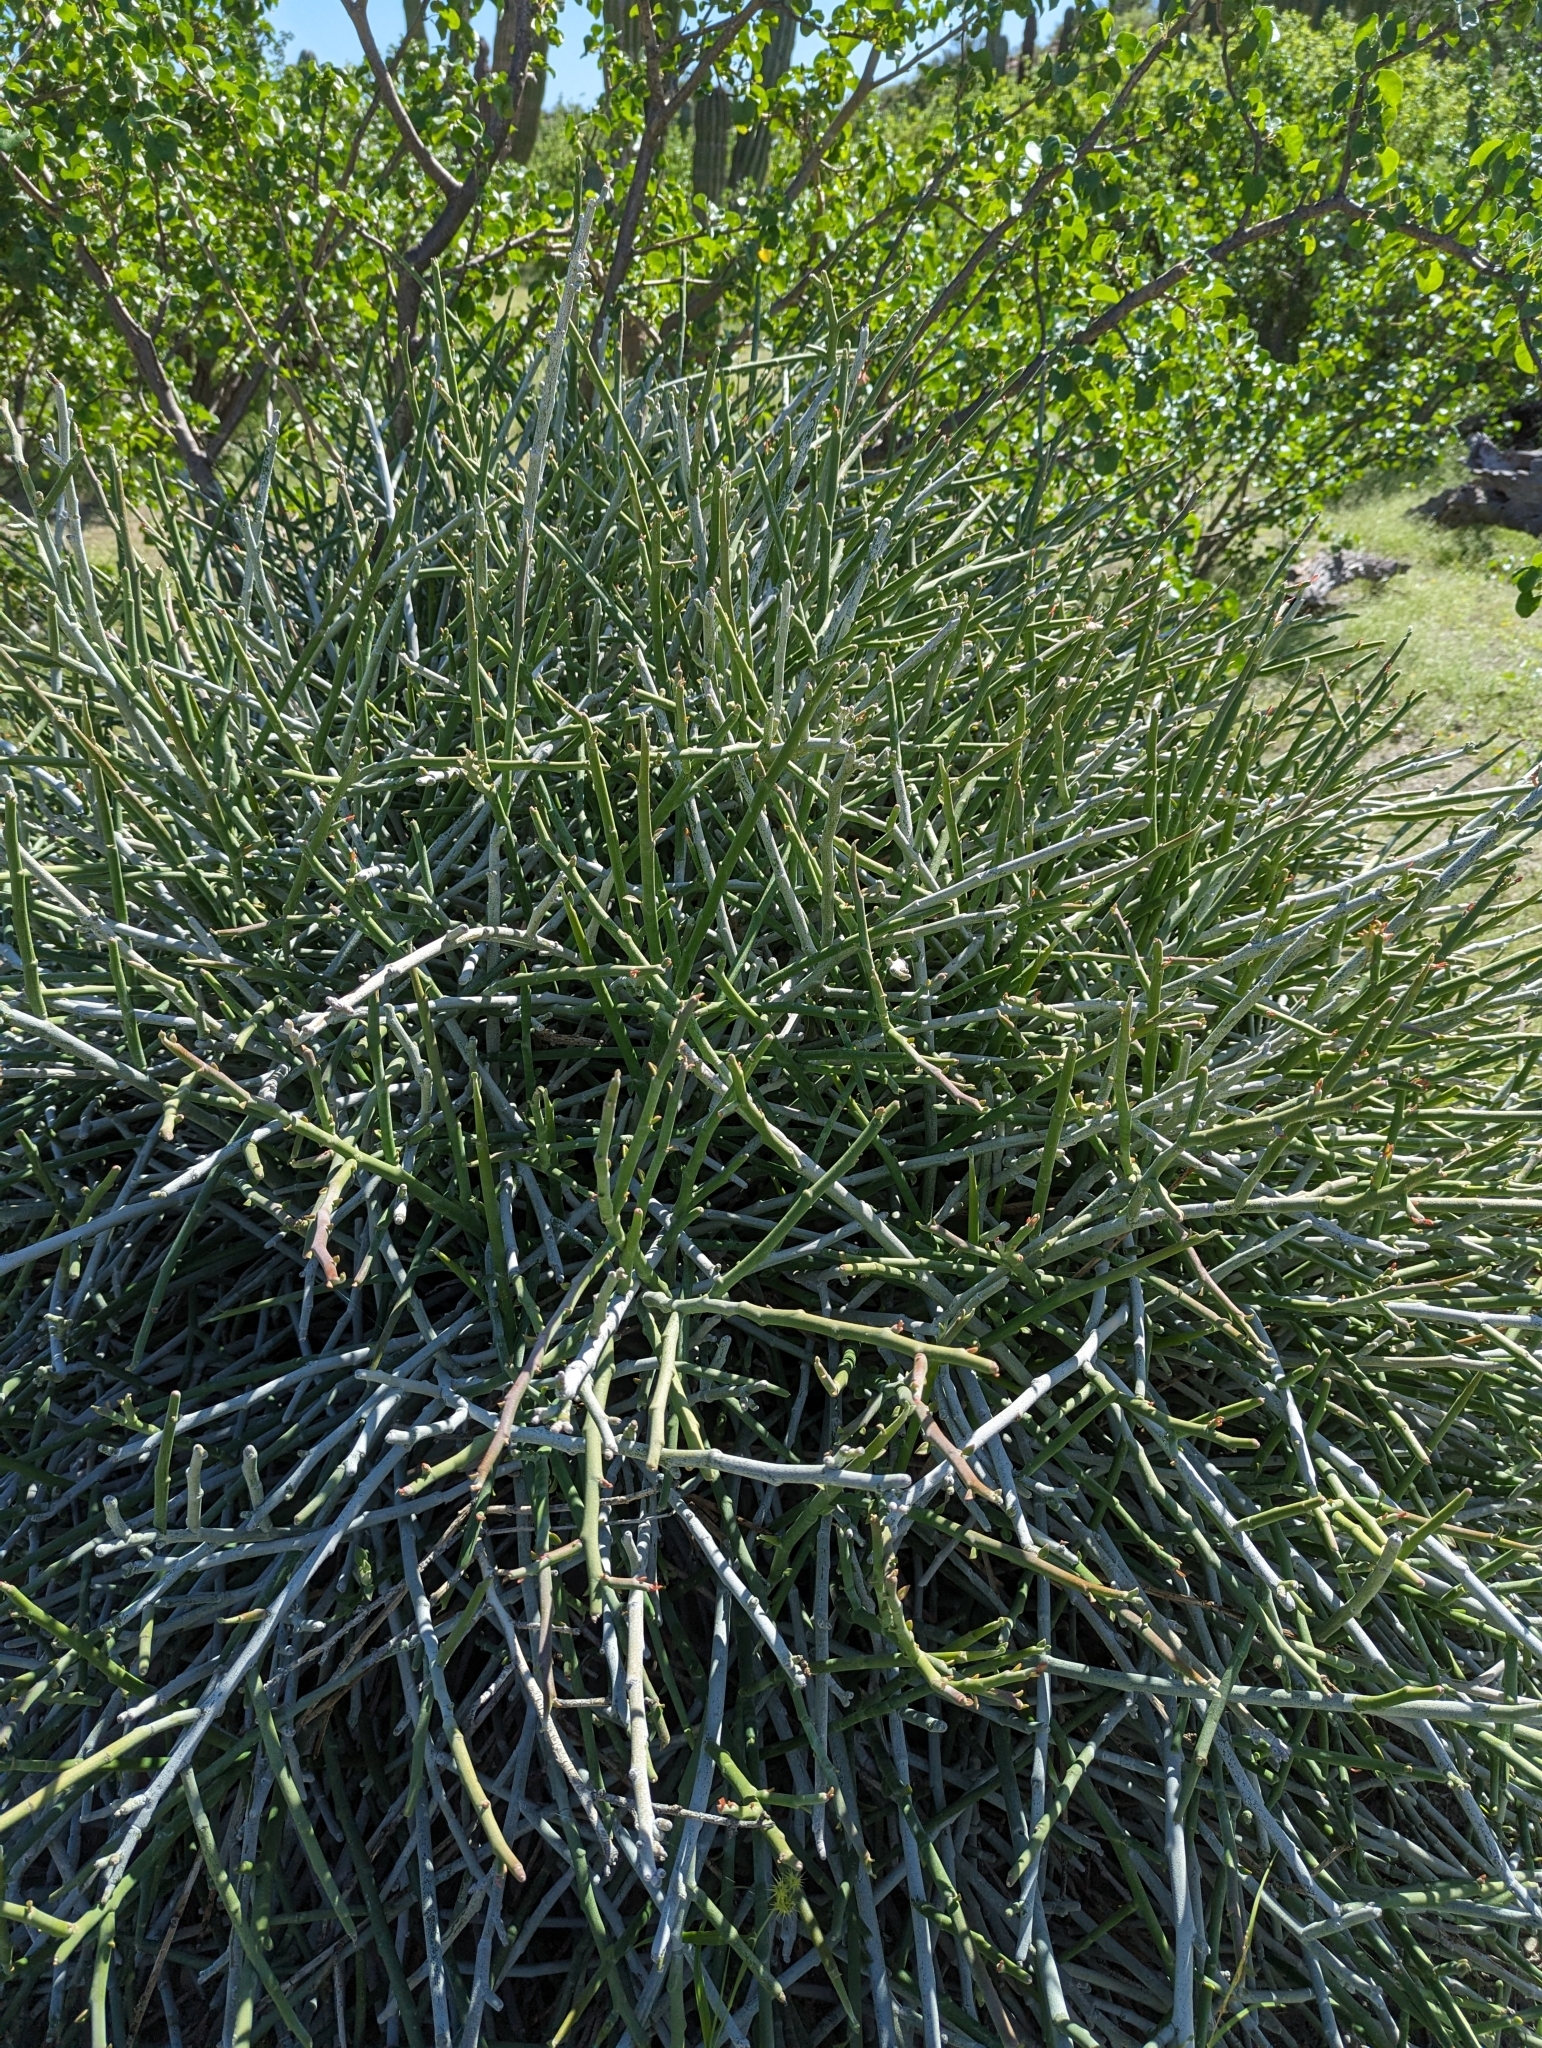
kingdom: Plantae
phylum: Tracheophyta
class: Magnoliopsida
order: Malpighiales
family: Euphorbiaceae
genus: Euphorbia
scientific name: Euphorbia lomelii
